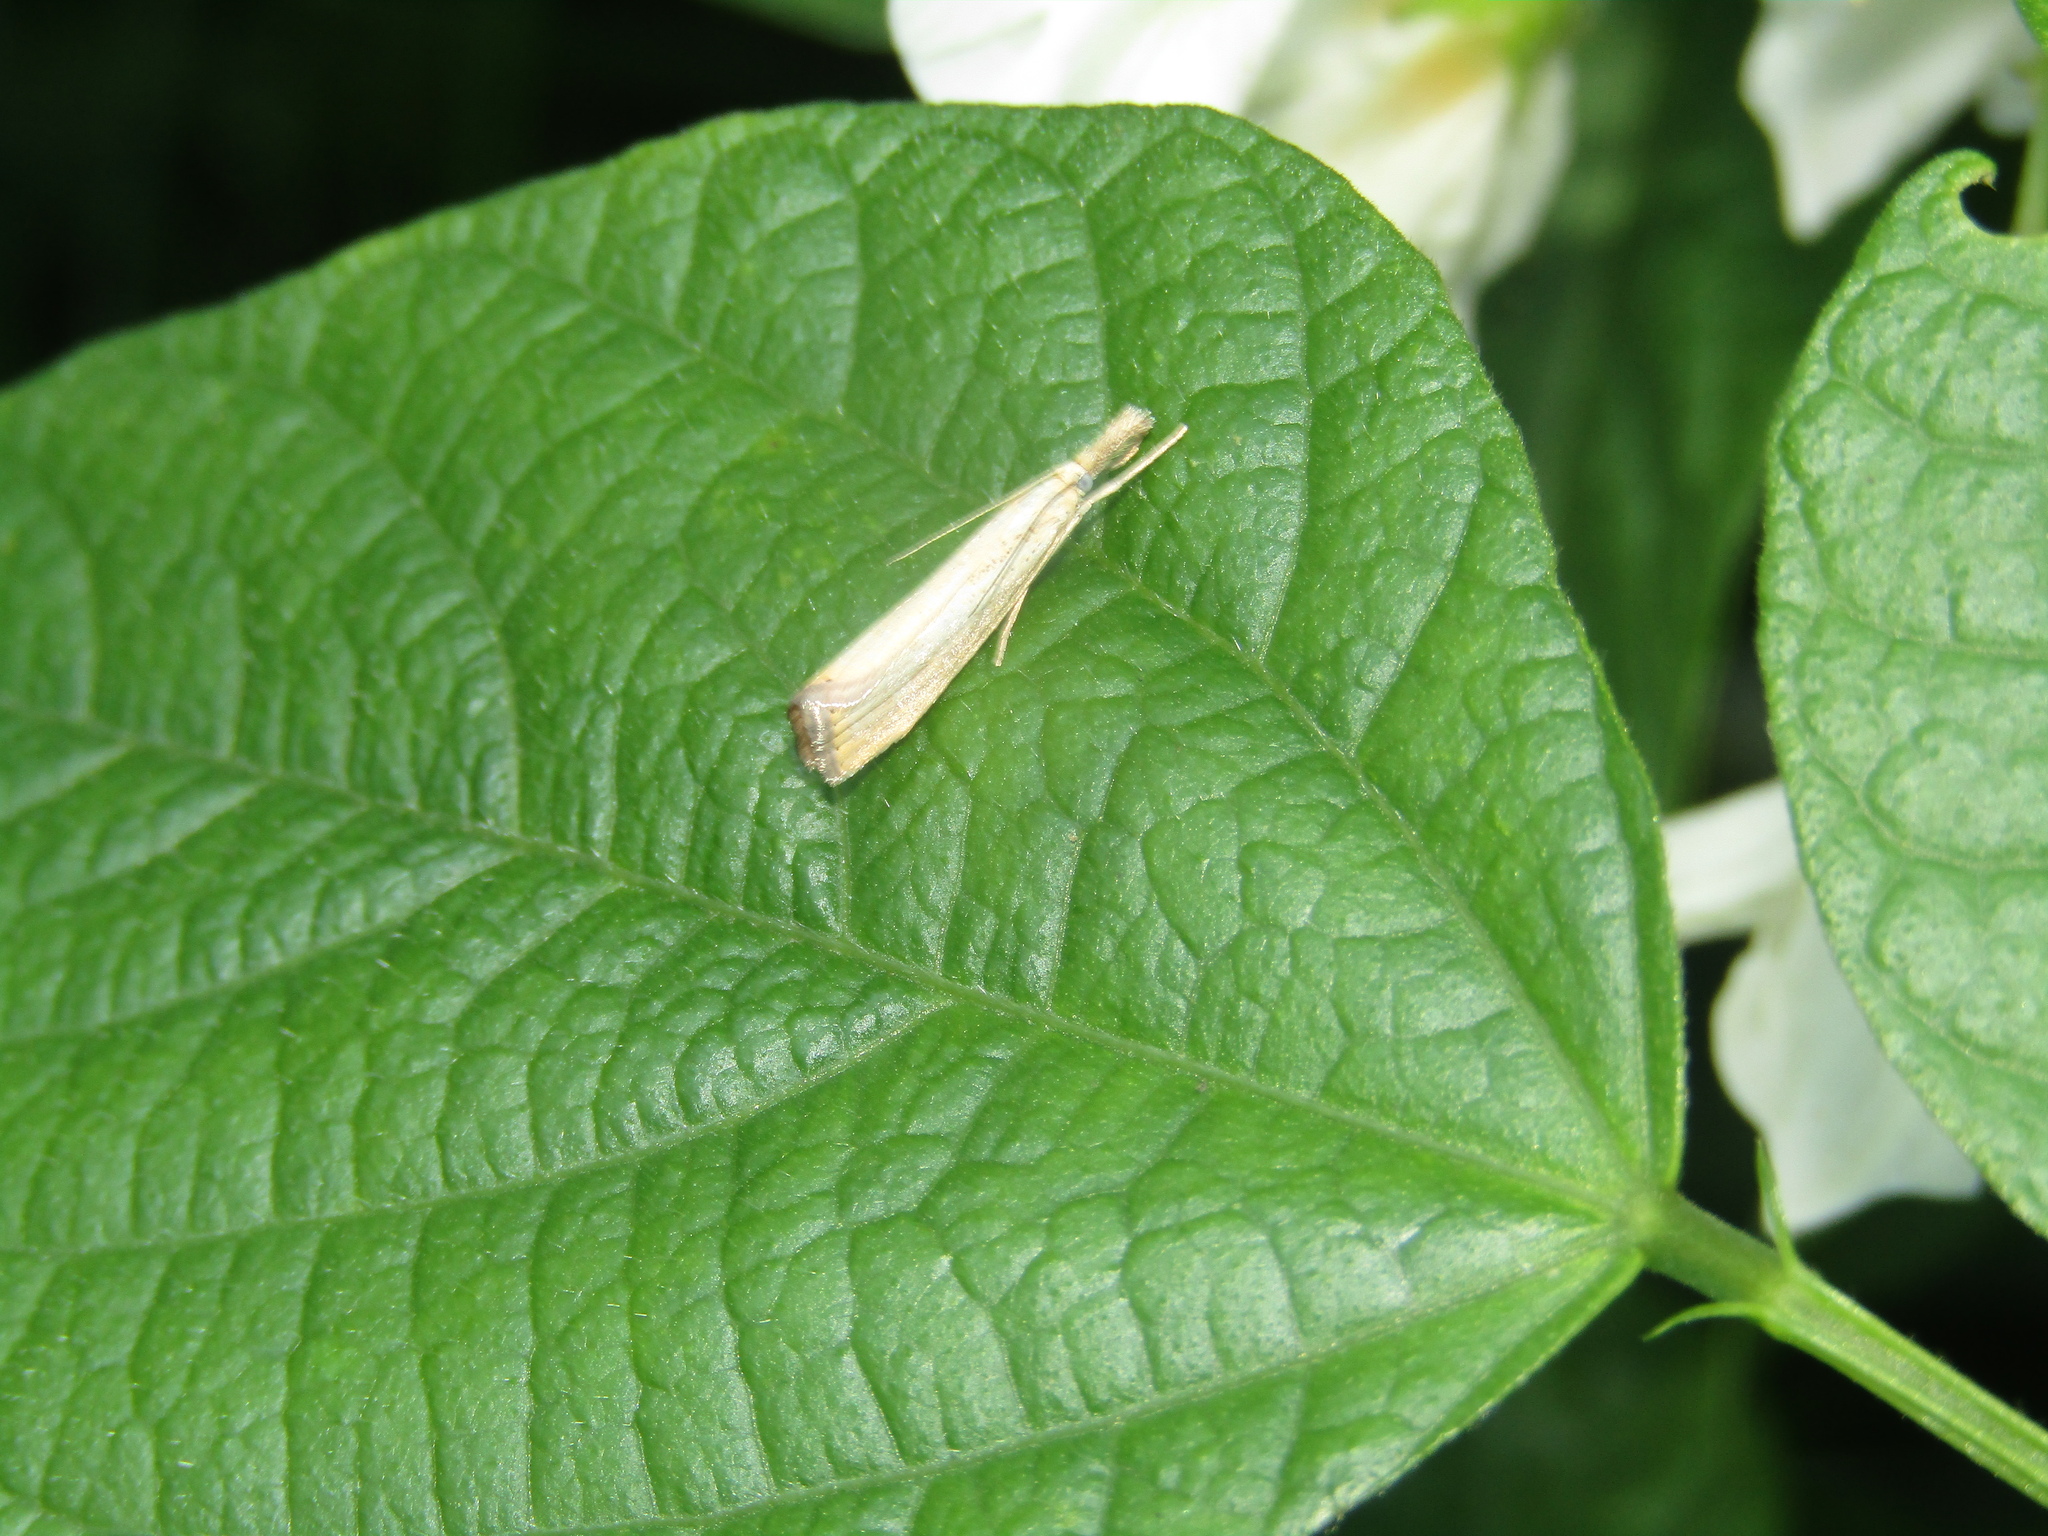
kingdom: Animalia
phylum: Arthropoda
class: Insecta
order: Lepidoptera
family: Crambidae
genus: Agriphila
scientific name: Agriphila straminella
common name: Straw grass-veneer
